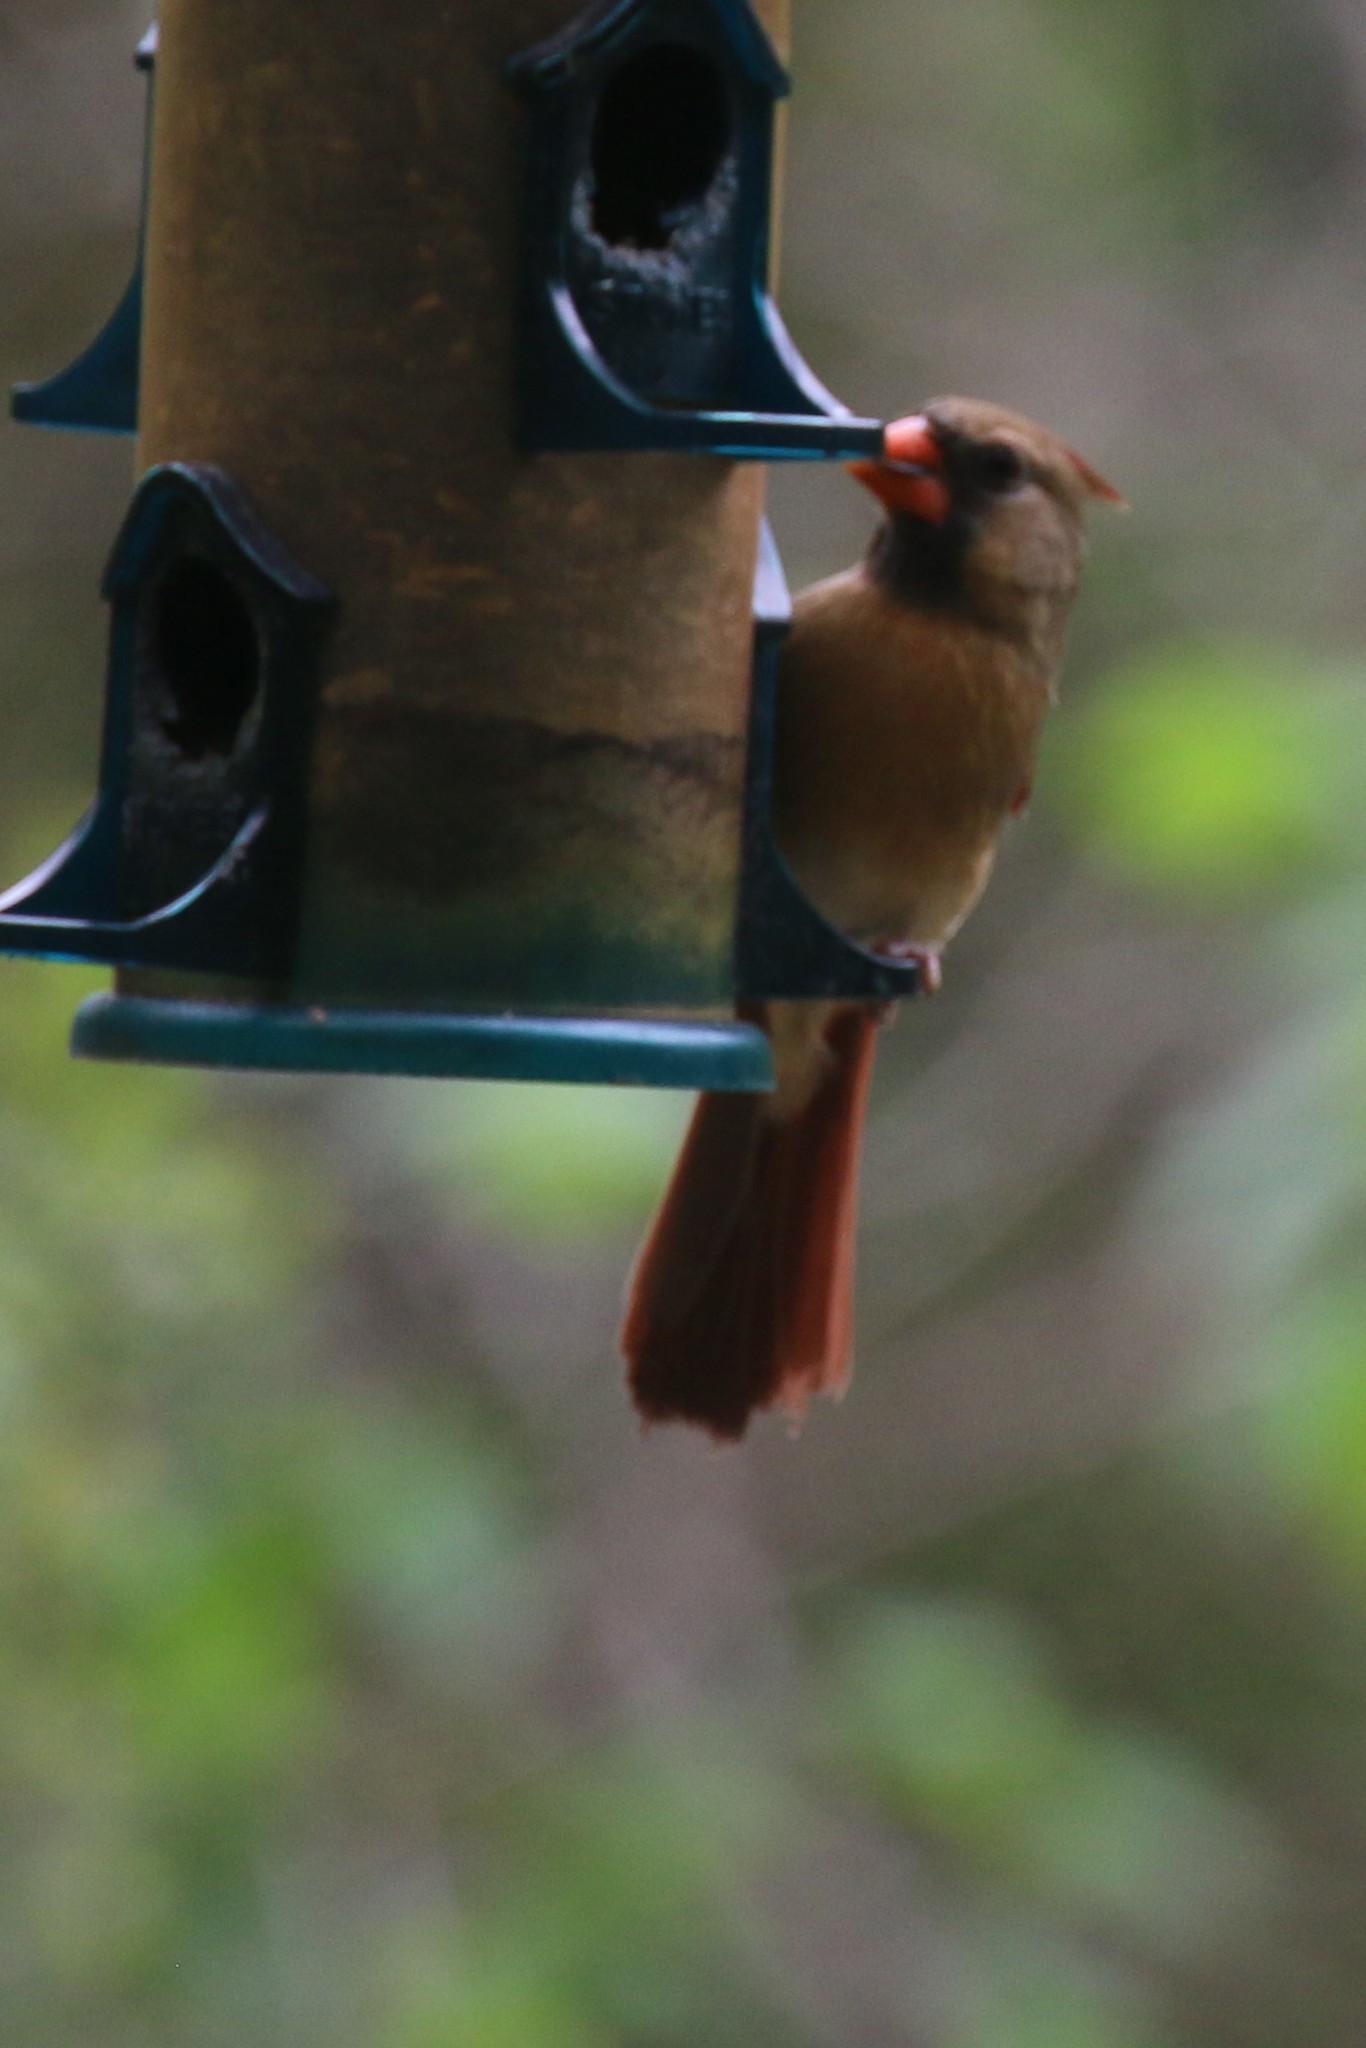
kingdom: Animalia
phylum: Chordata
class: Aves
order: Passeriformes
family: Cardinalidae
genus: Cardinalis
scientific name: Cardinalis cardinalis
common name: Northern cardinal
